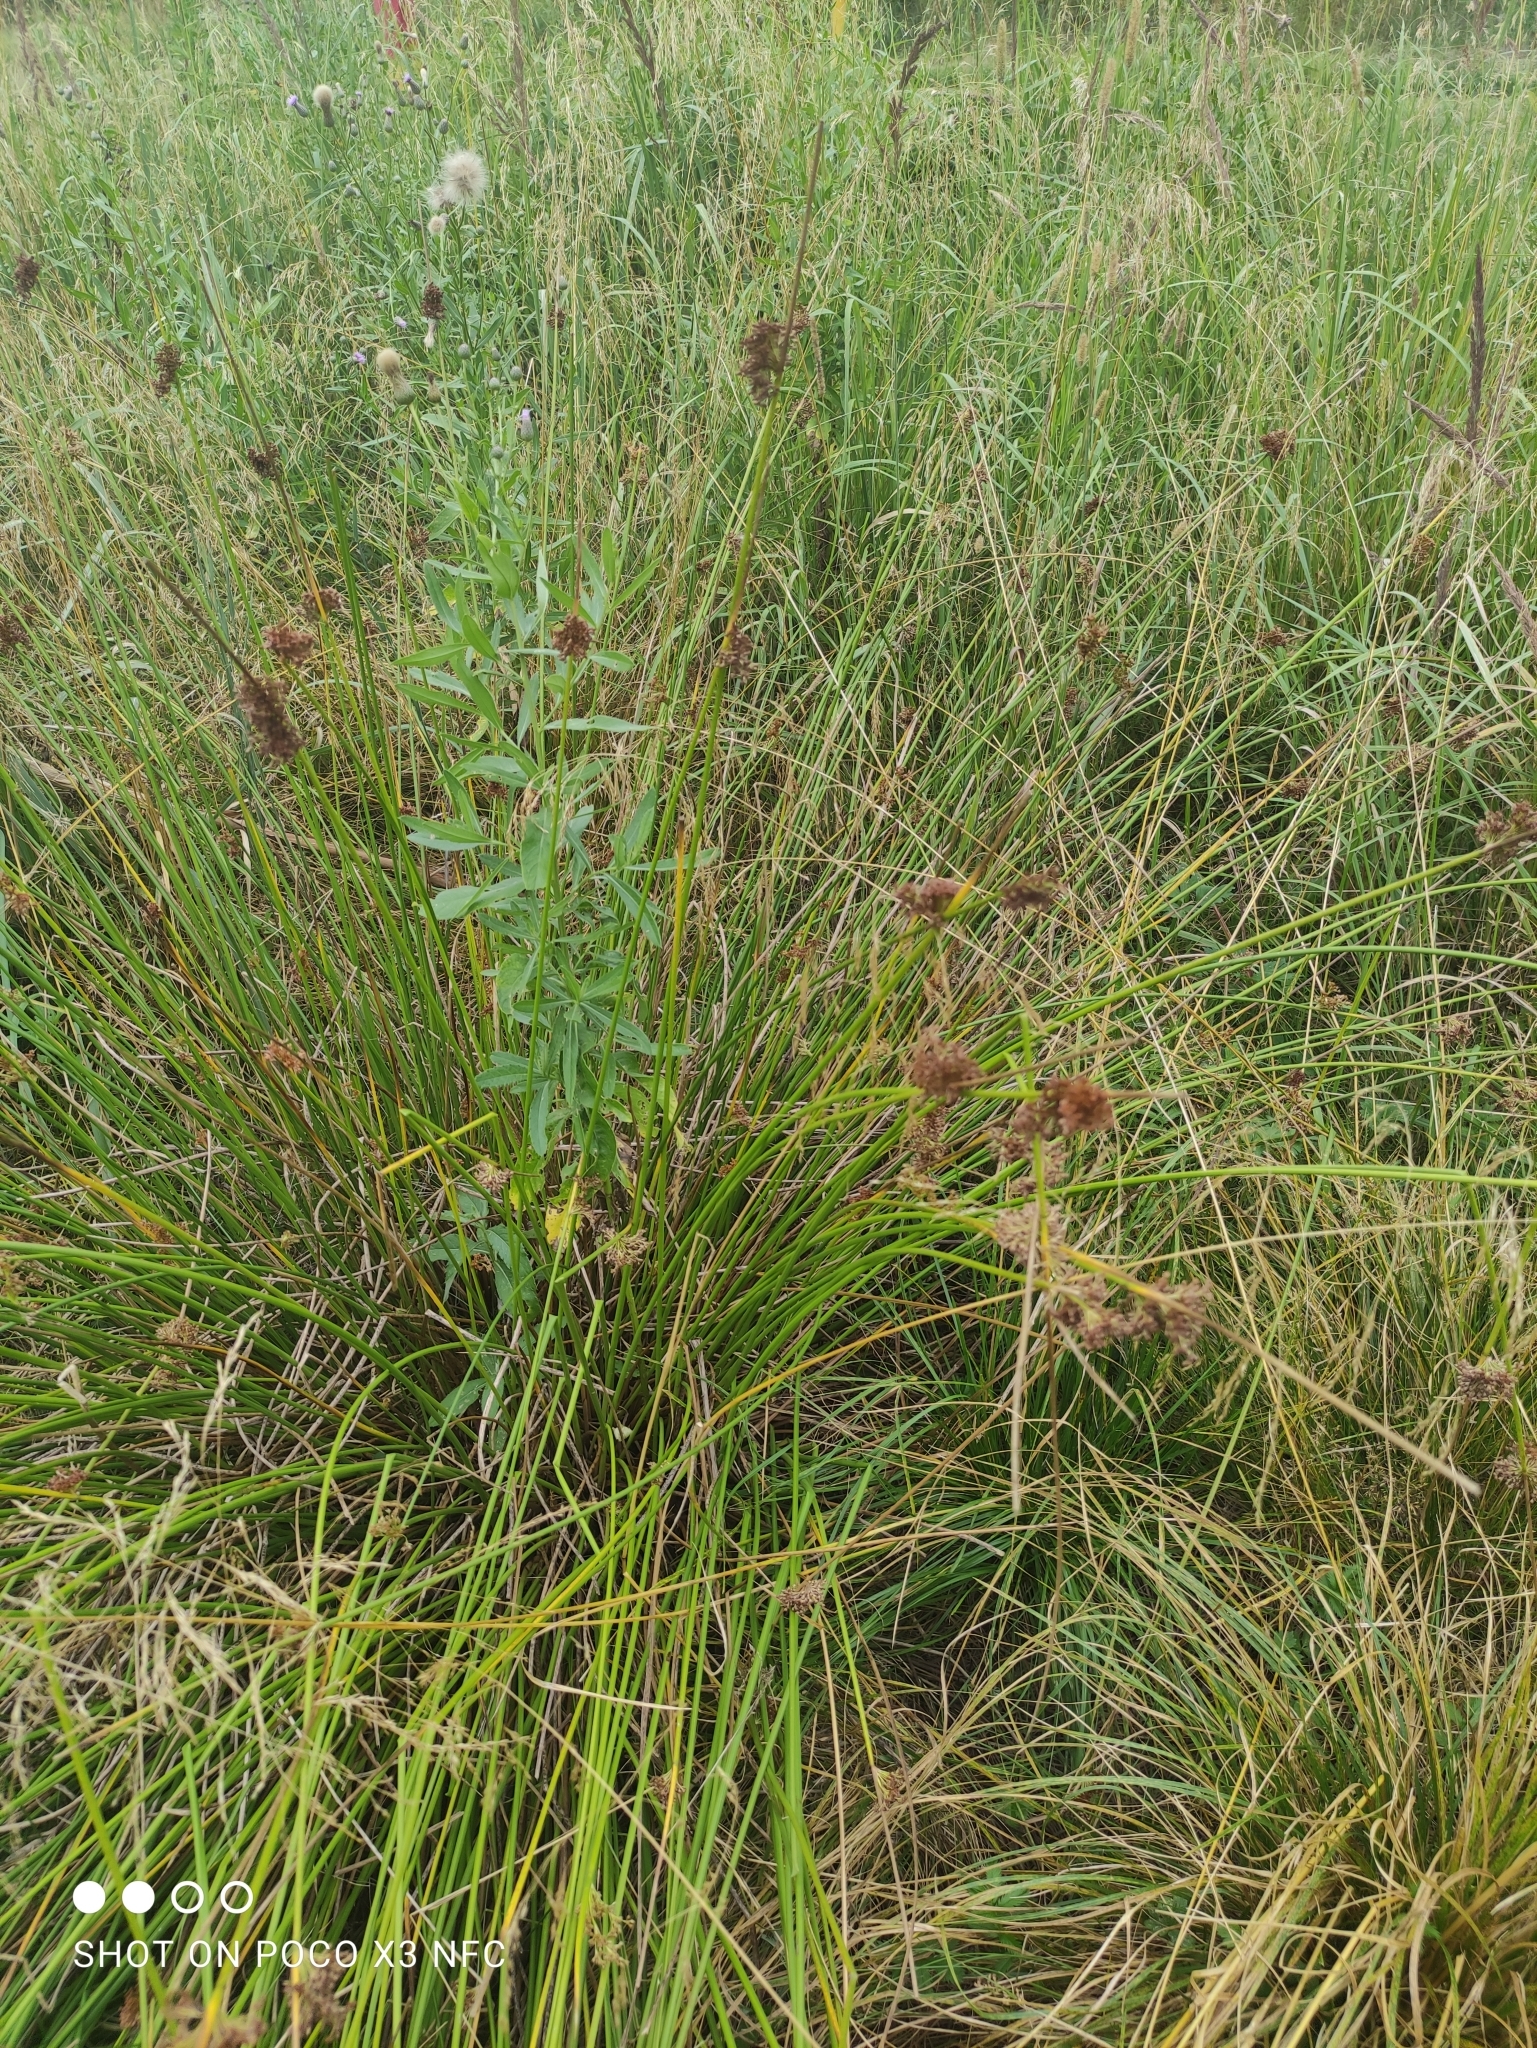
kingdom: Plantae
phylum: Tracheophyta
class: Liliopsida
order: Poales
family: Juncaceae
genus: Juncus
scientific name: Juncus effusus
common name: Soft rush
